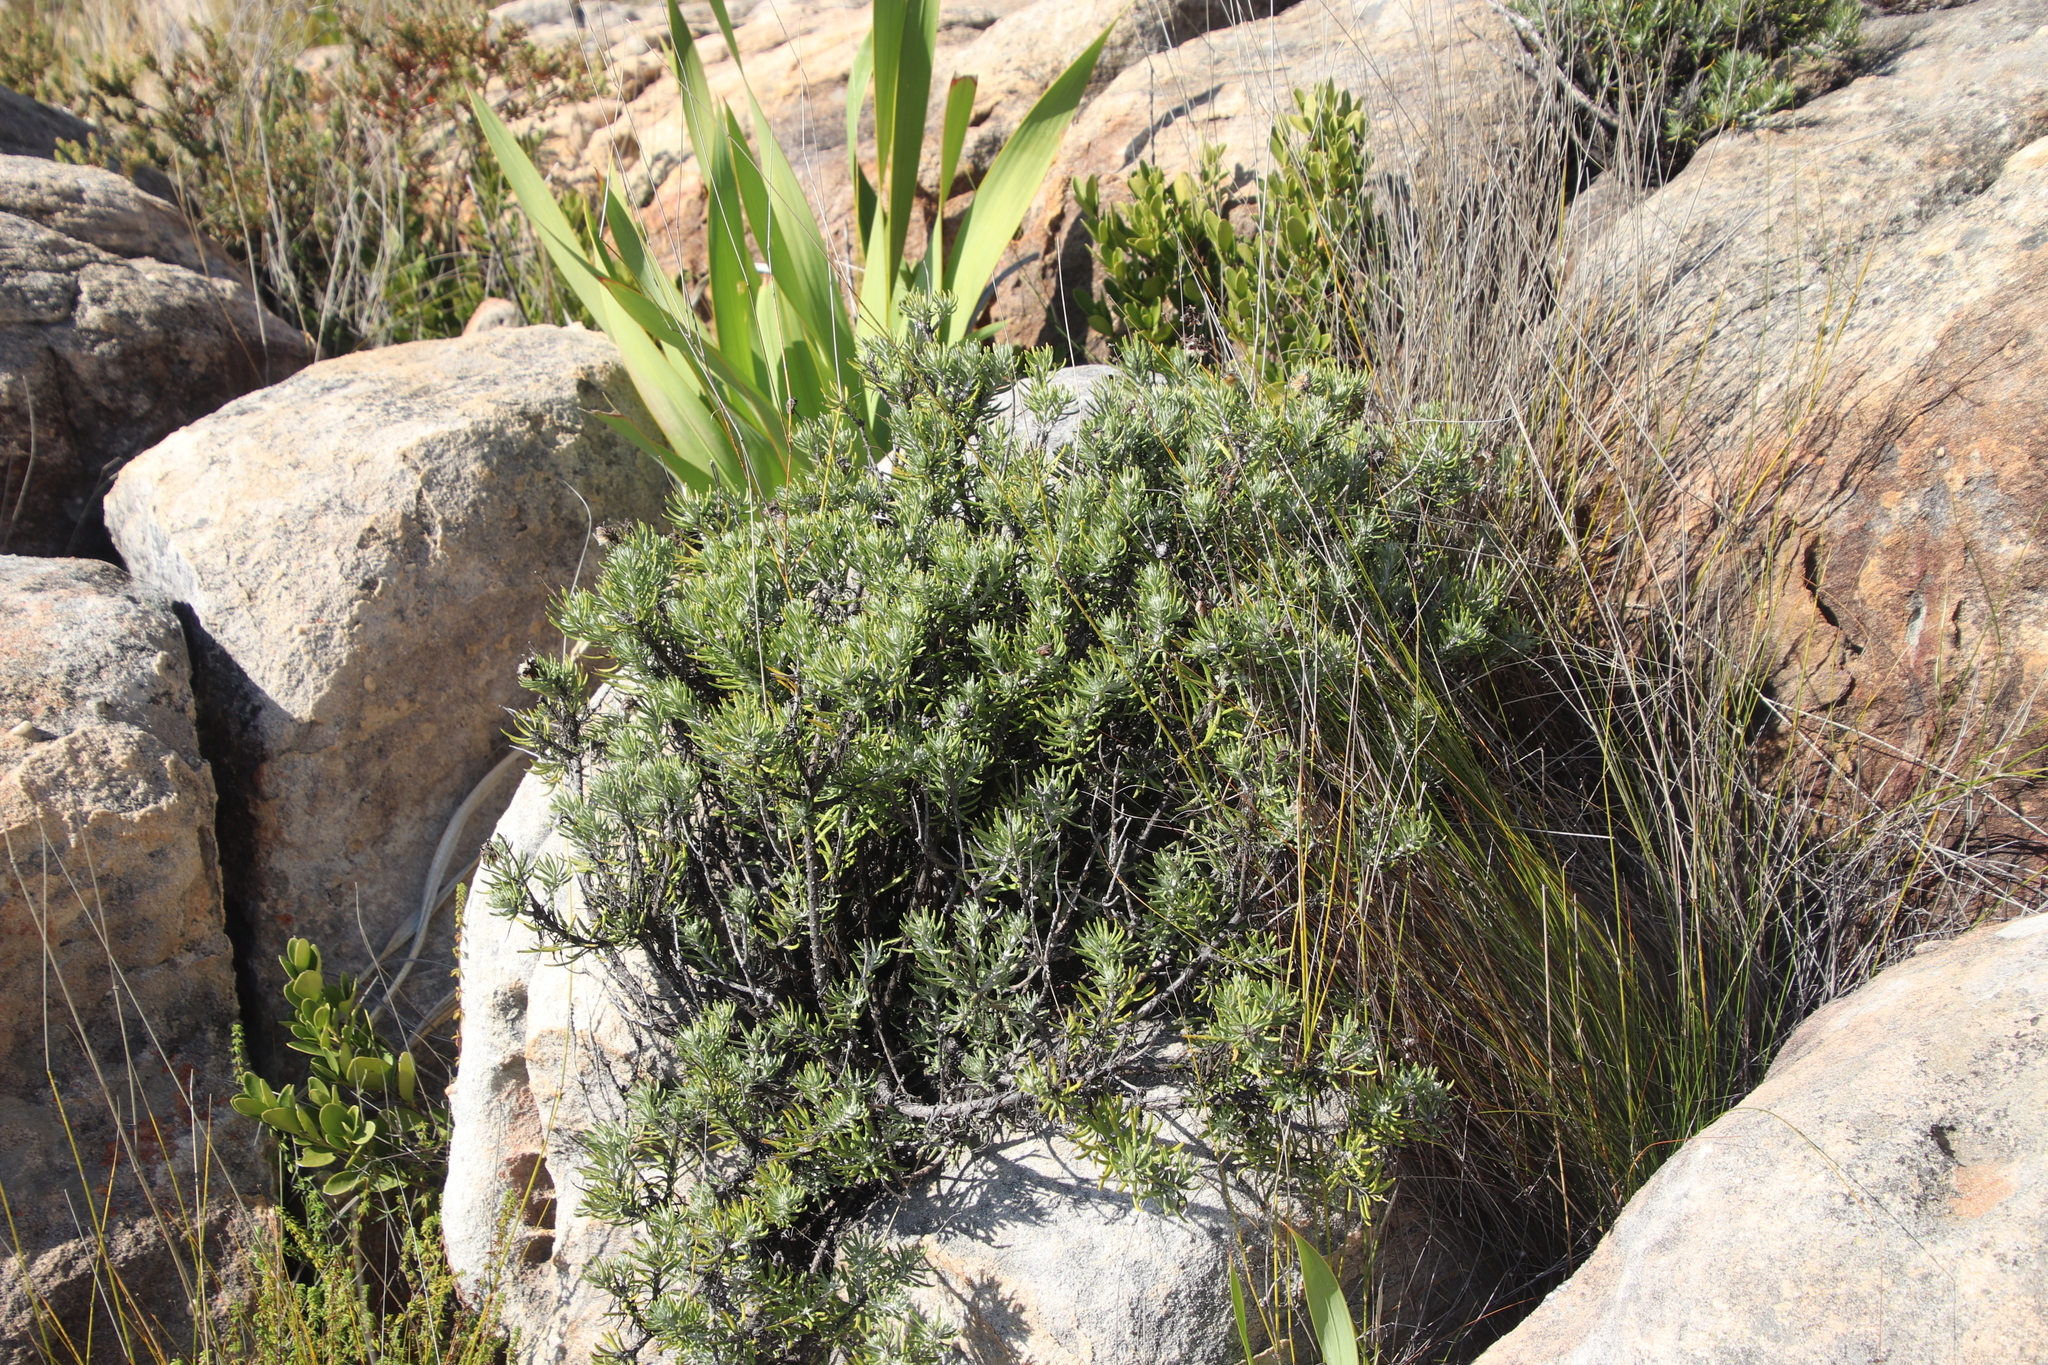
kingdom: Plantae
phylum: Tracheophyta
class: Magnoliopsida
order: Asterales
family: Asteraceae
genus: Heterolepis
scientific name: Heterolepis aliena
